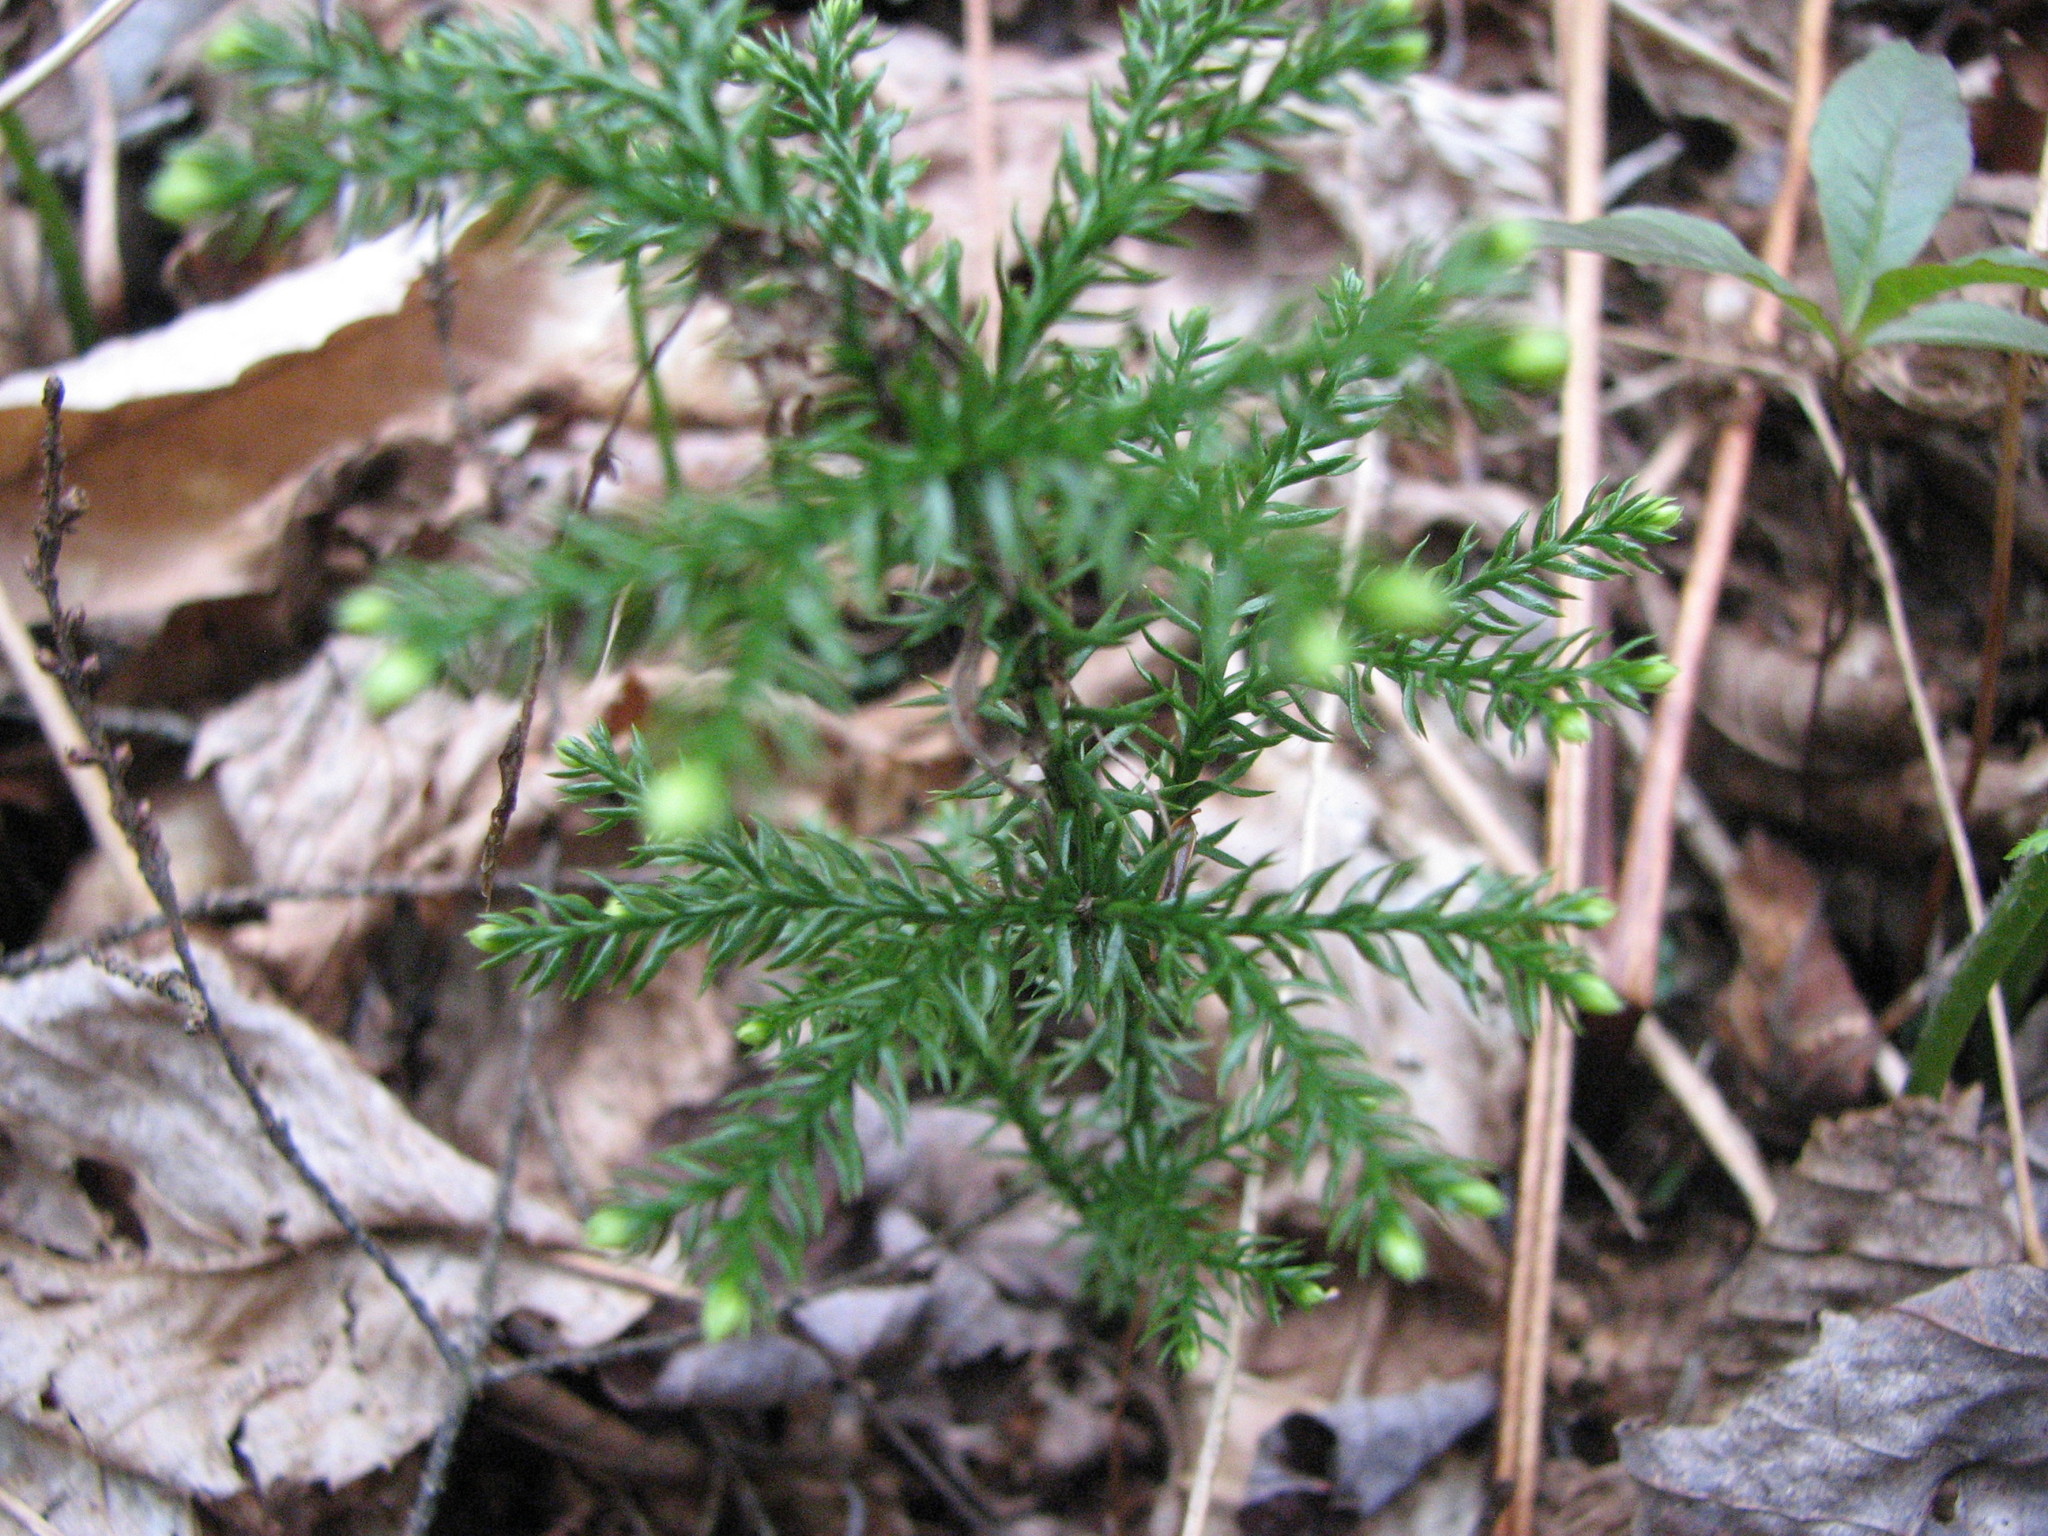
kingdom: Plantae
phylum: Tracheophyta
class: Lycopodiopsida
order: Lycopodiales
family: Lycopodiaceae
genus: Dendrolycopodium
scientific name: Dendrolycopodium dendroideum
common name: Northern tree-clubmoss
